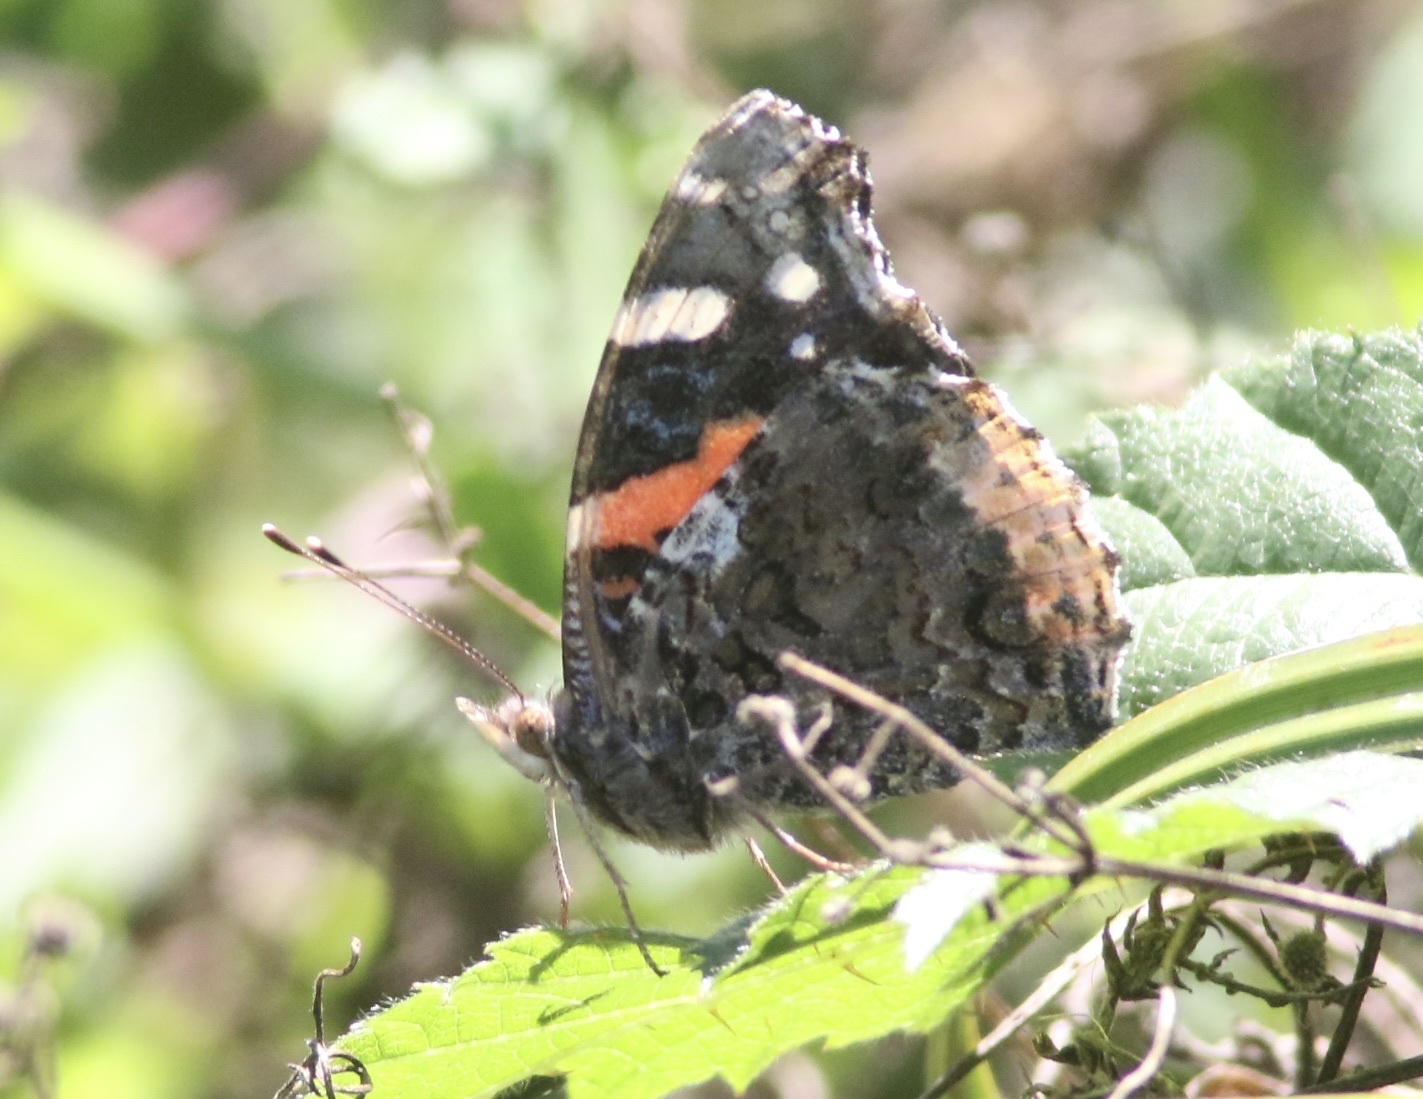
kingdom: Animalia
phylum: Arthropoda
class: Insecta
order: Lepidoptera
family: Nymphalidae
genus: Vanessa
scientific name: Vanessa atalanta
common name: Red admiral
